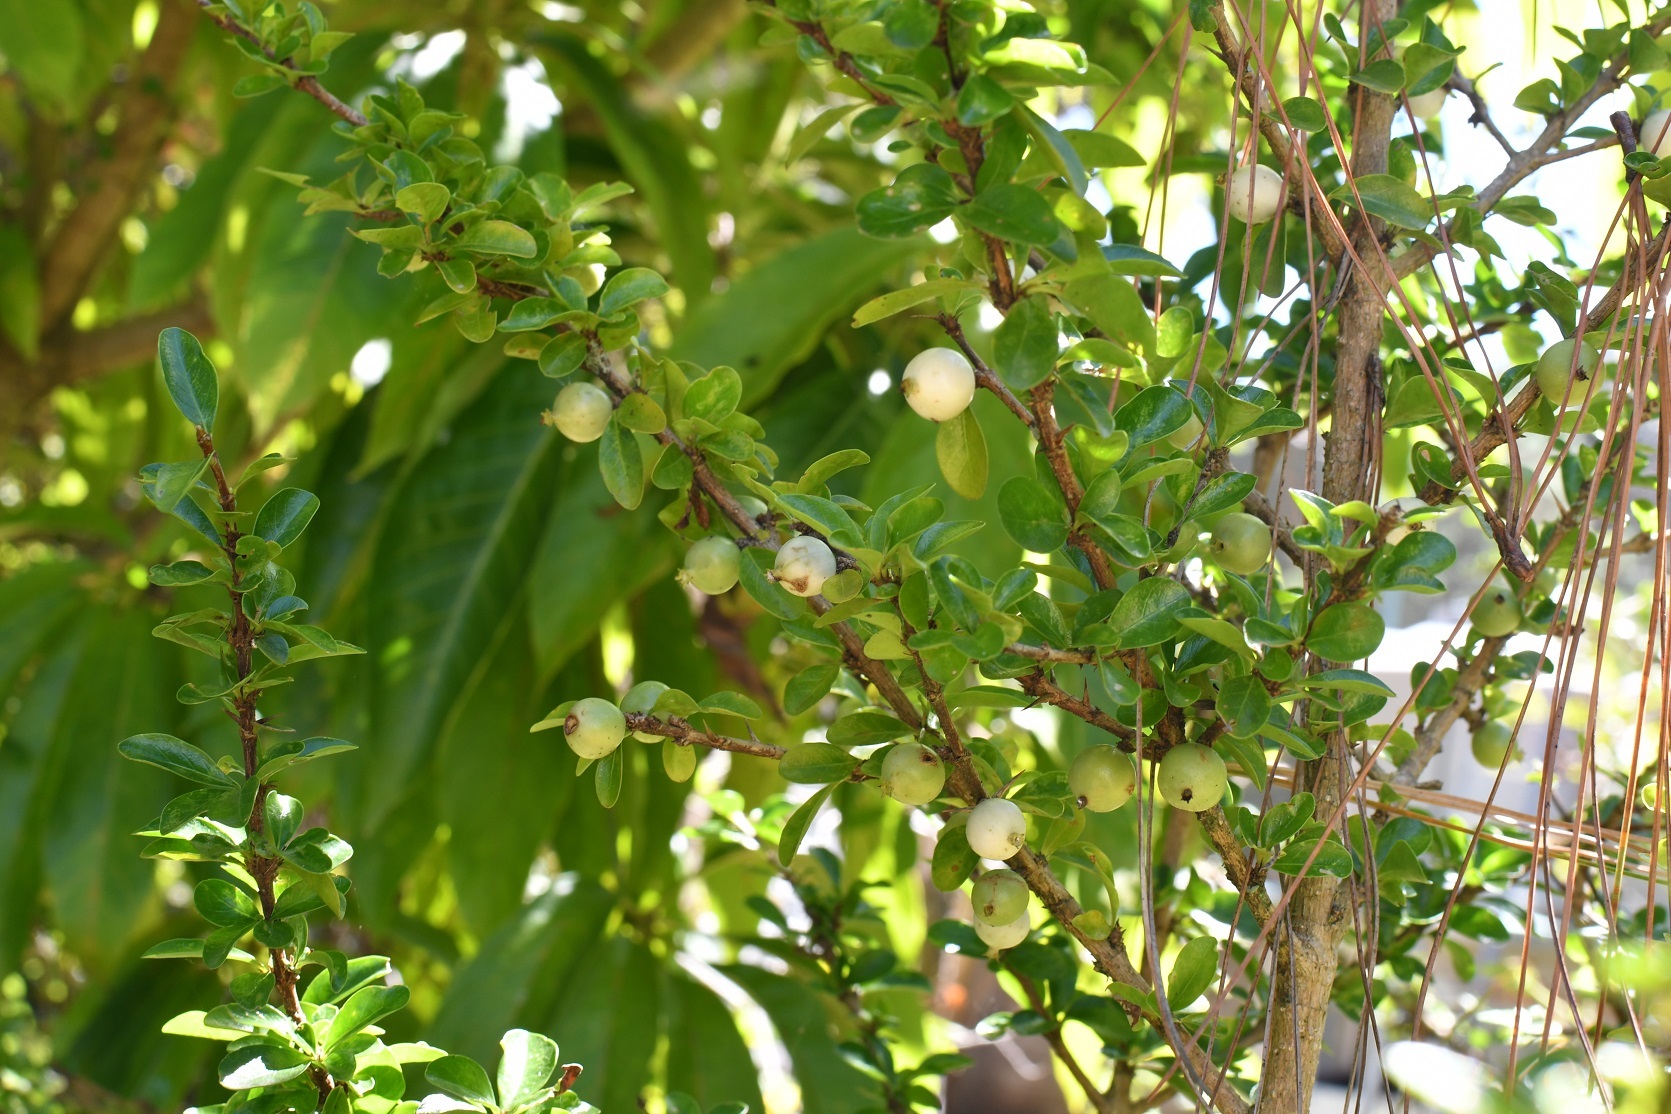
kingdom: Plantae
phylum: Tracheophyta
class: Magnoliopsida
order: Gentianales
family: Rubiaceae
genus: Randia
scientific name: Randia chiapensis
